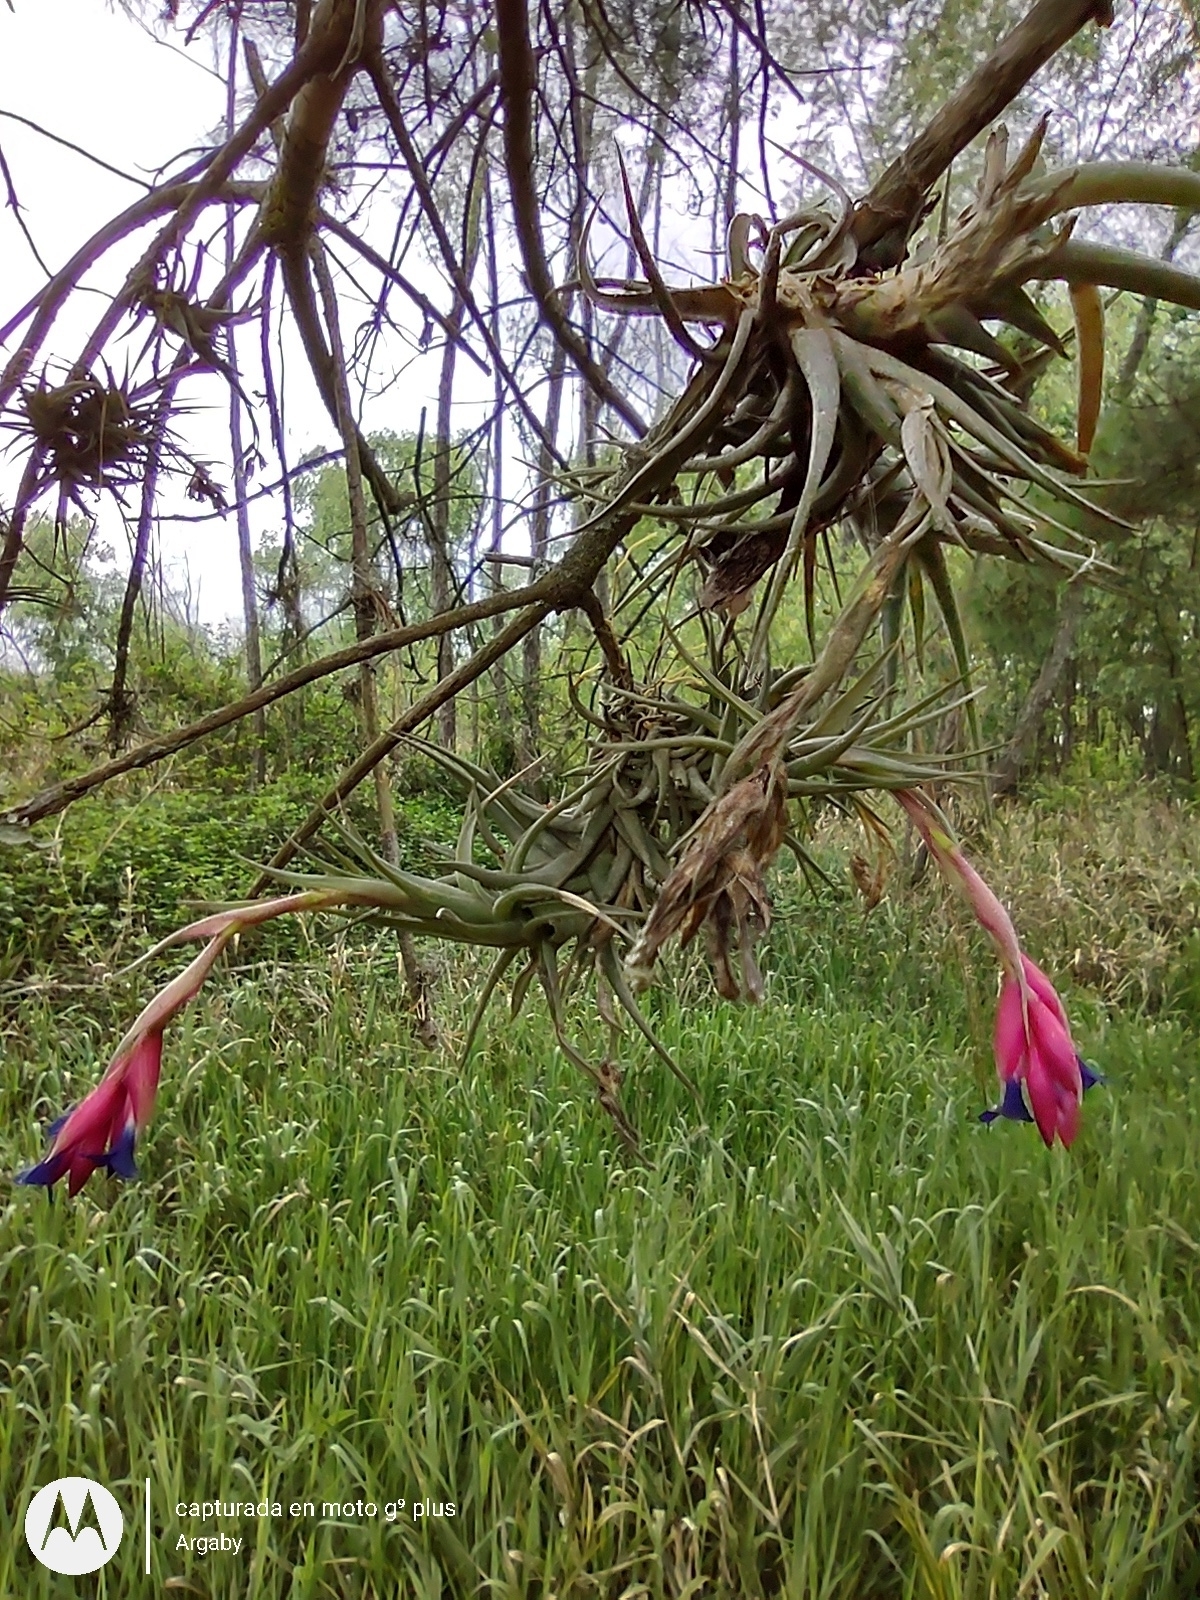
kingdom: Plantae
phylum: Tracheophyta
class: Liliopsida
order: Poales
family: Bromeliaceae
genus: Tillandsia
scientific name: Tillandsia aeranthos
